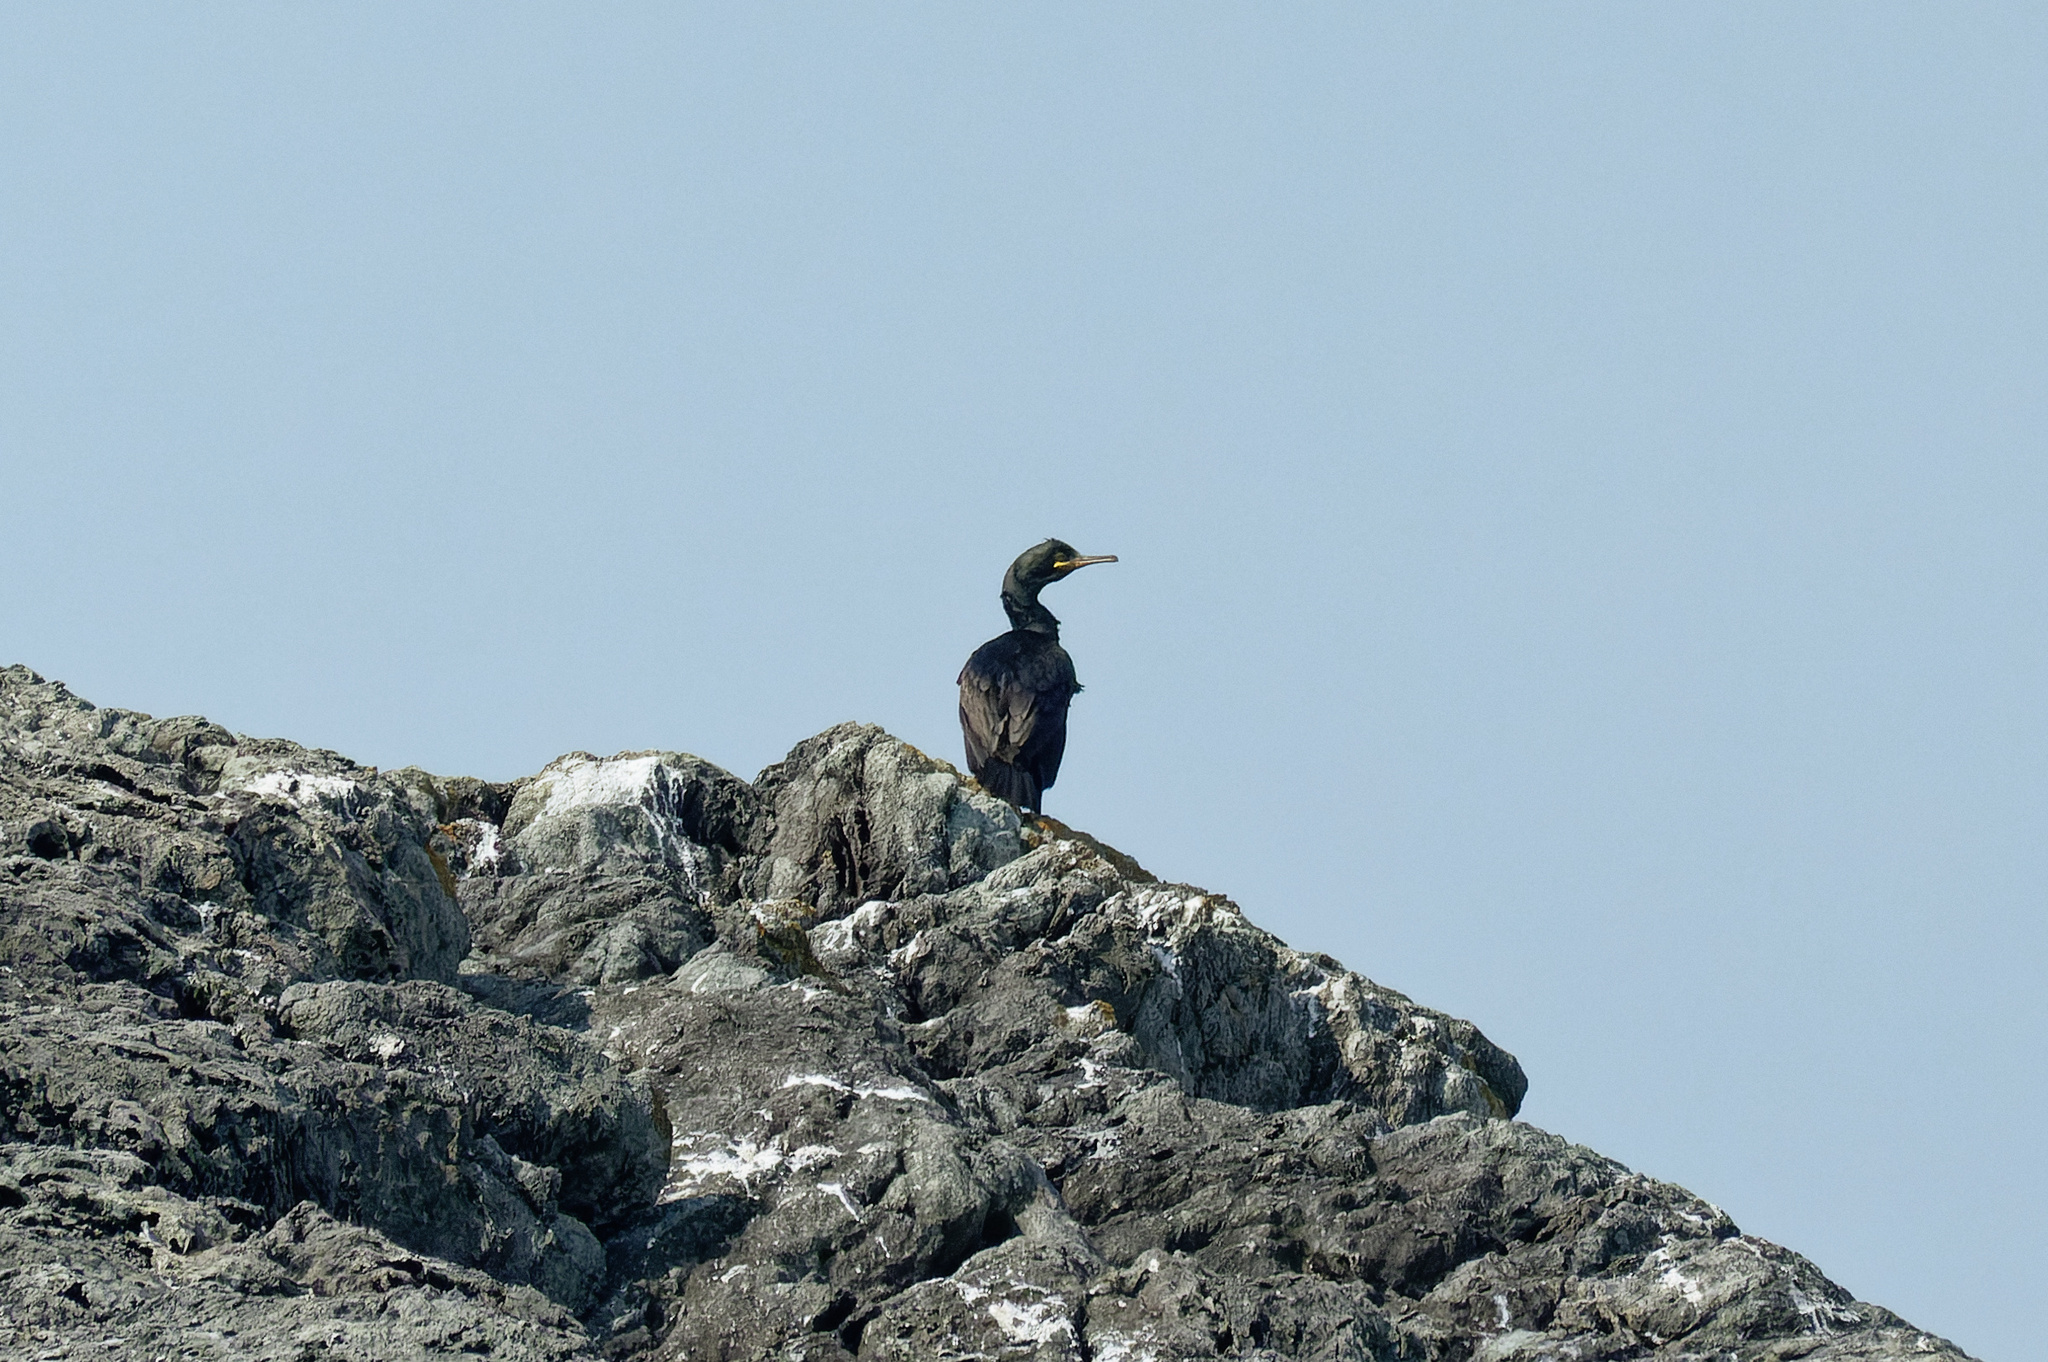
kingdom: Animalia
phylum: Chordata
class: Aves
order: Suliformes
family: Phalacrocoracidae
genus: Phalacrocorax
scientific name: Phalacrocorax aristotelis
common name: European shag
